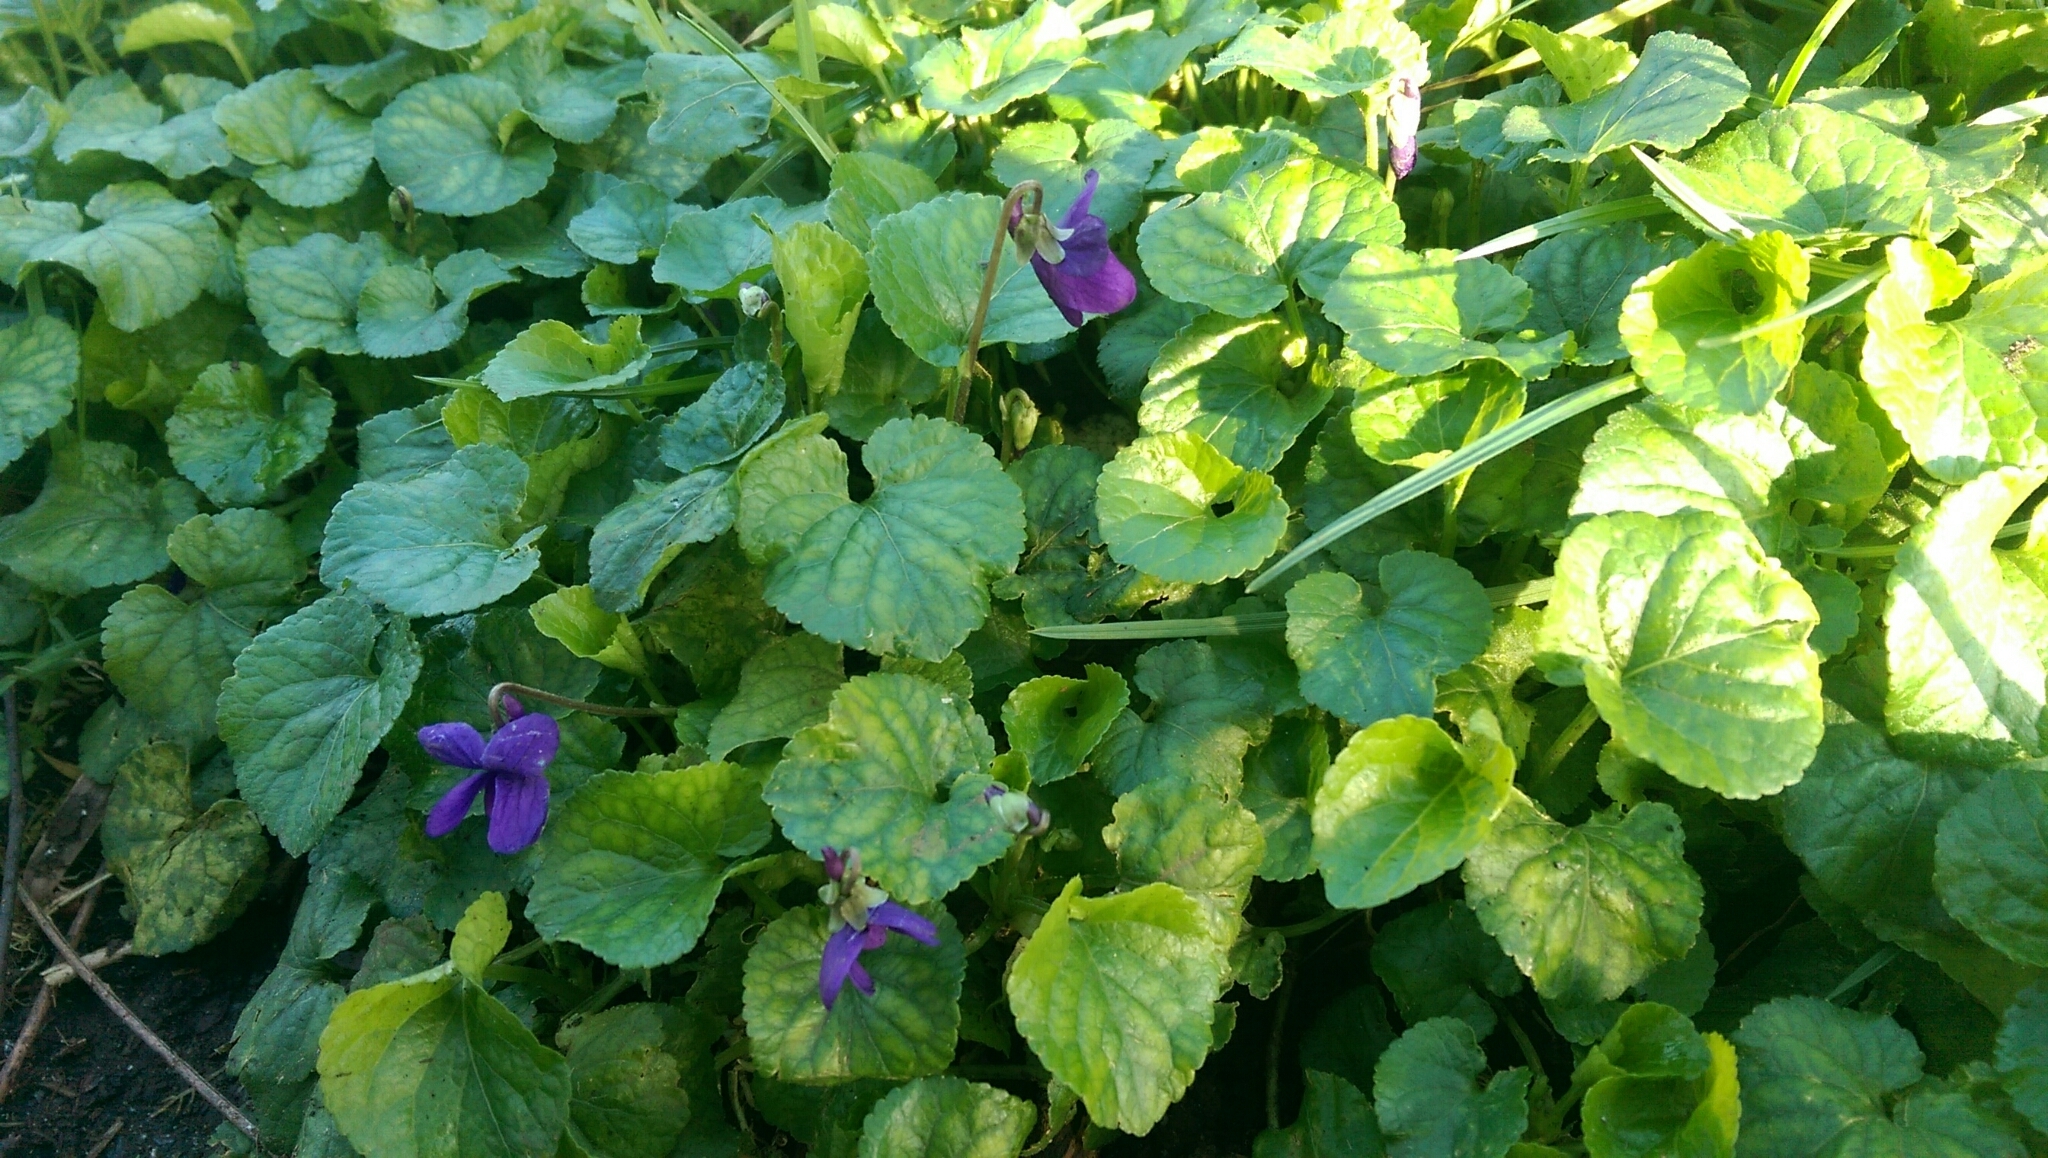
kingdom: Plantae
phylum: Tracheophyta
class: Magnoliopsida
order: Malpighiales
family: Violaceae
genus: Viola
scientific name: Viola odorata
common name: Sweet violet
